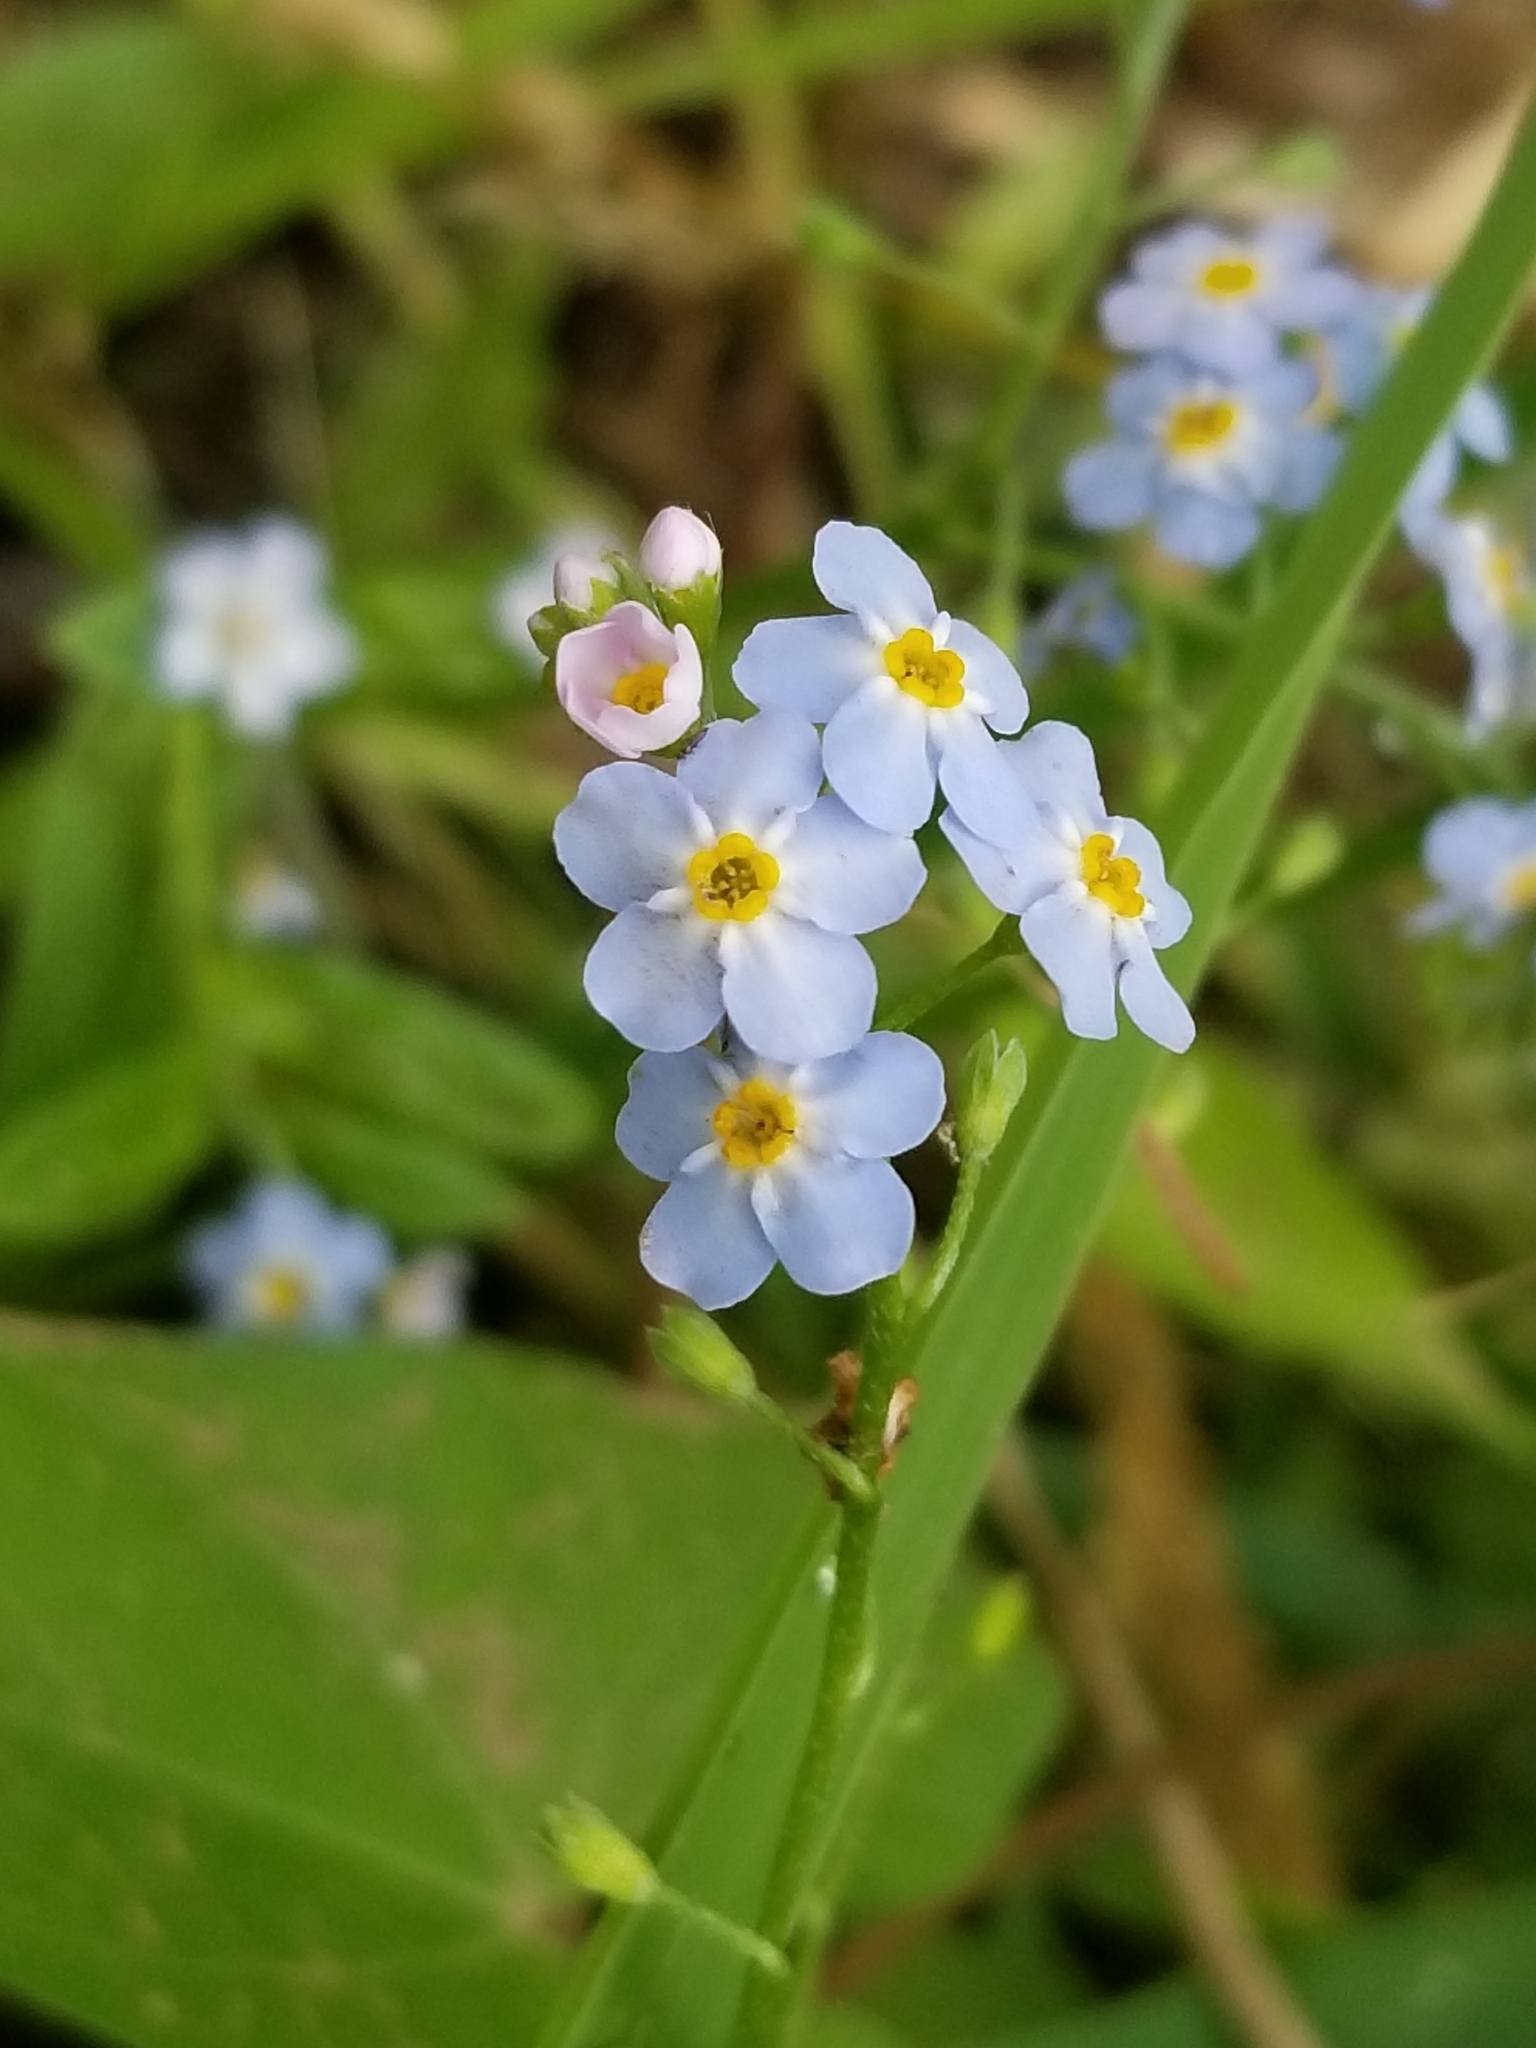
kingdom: Plantae
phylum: Tracheophyta
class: Magnoliopsida
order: Boraginales
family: Boraginaceae
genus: Myosotis
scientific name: Myosotis scorpioides
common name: Water forget-me-not
